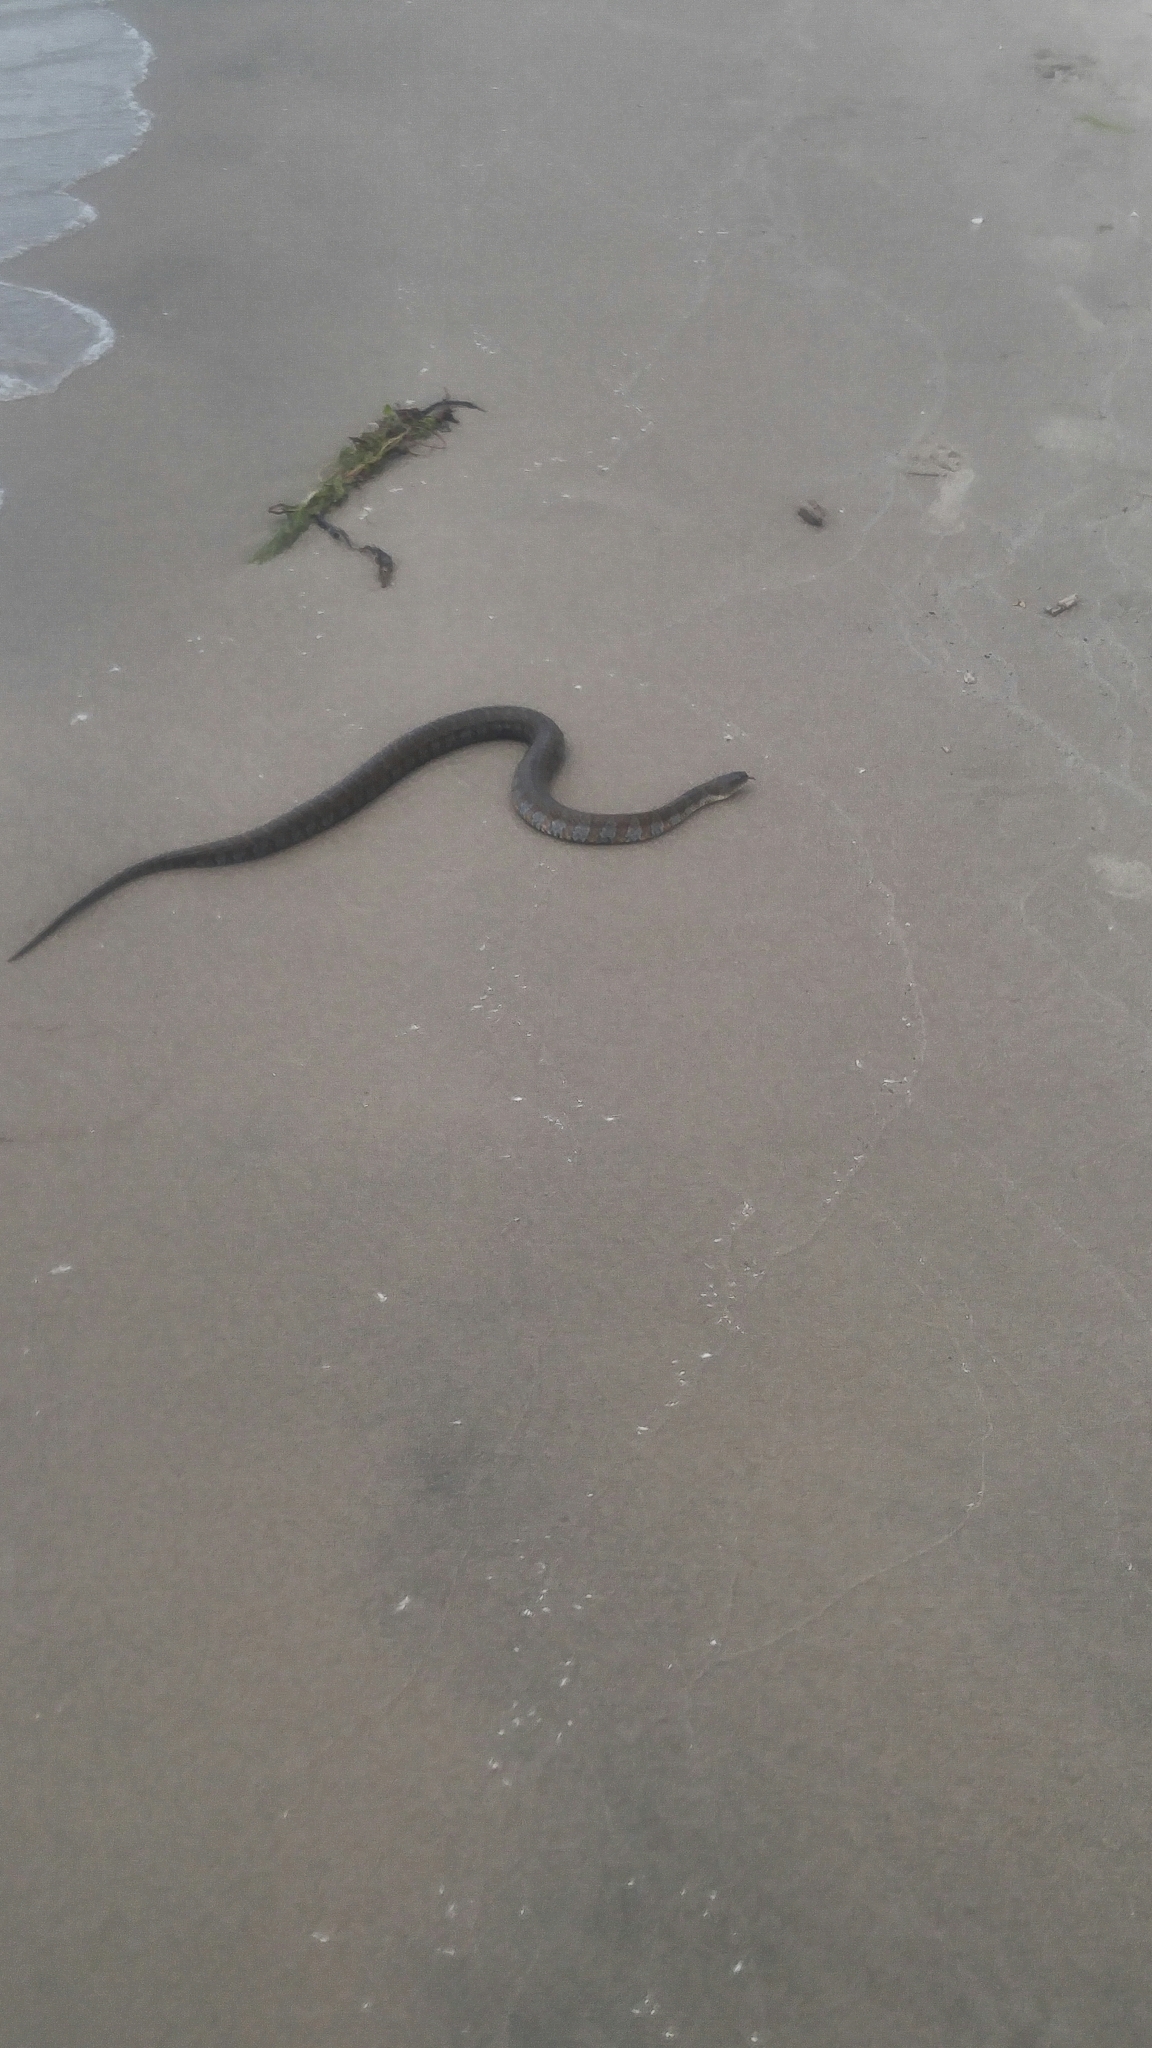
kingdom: Animalia
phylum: Chordata
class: Squamata
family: Colubridae
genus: Nerodia
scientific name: Nerodia sipedon
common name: Northern water snake
